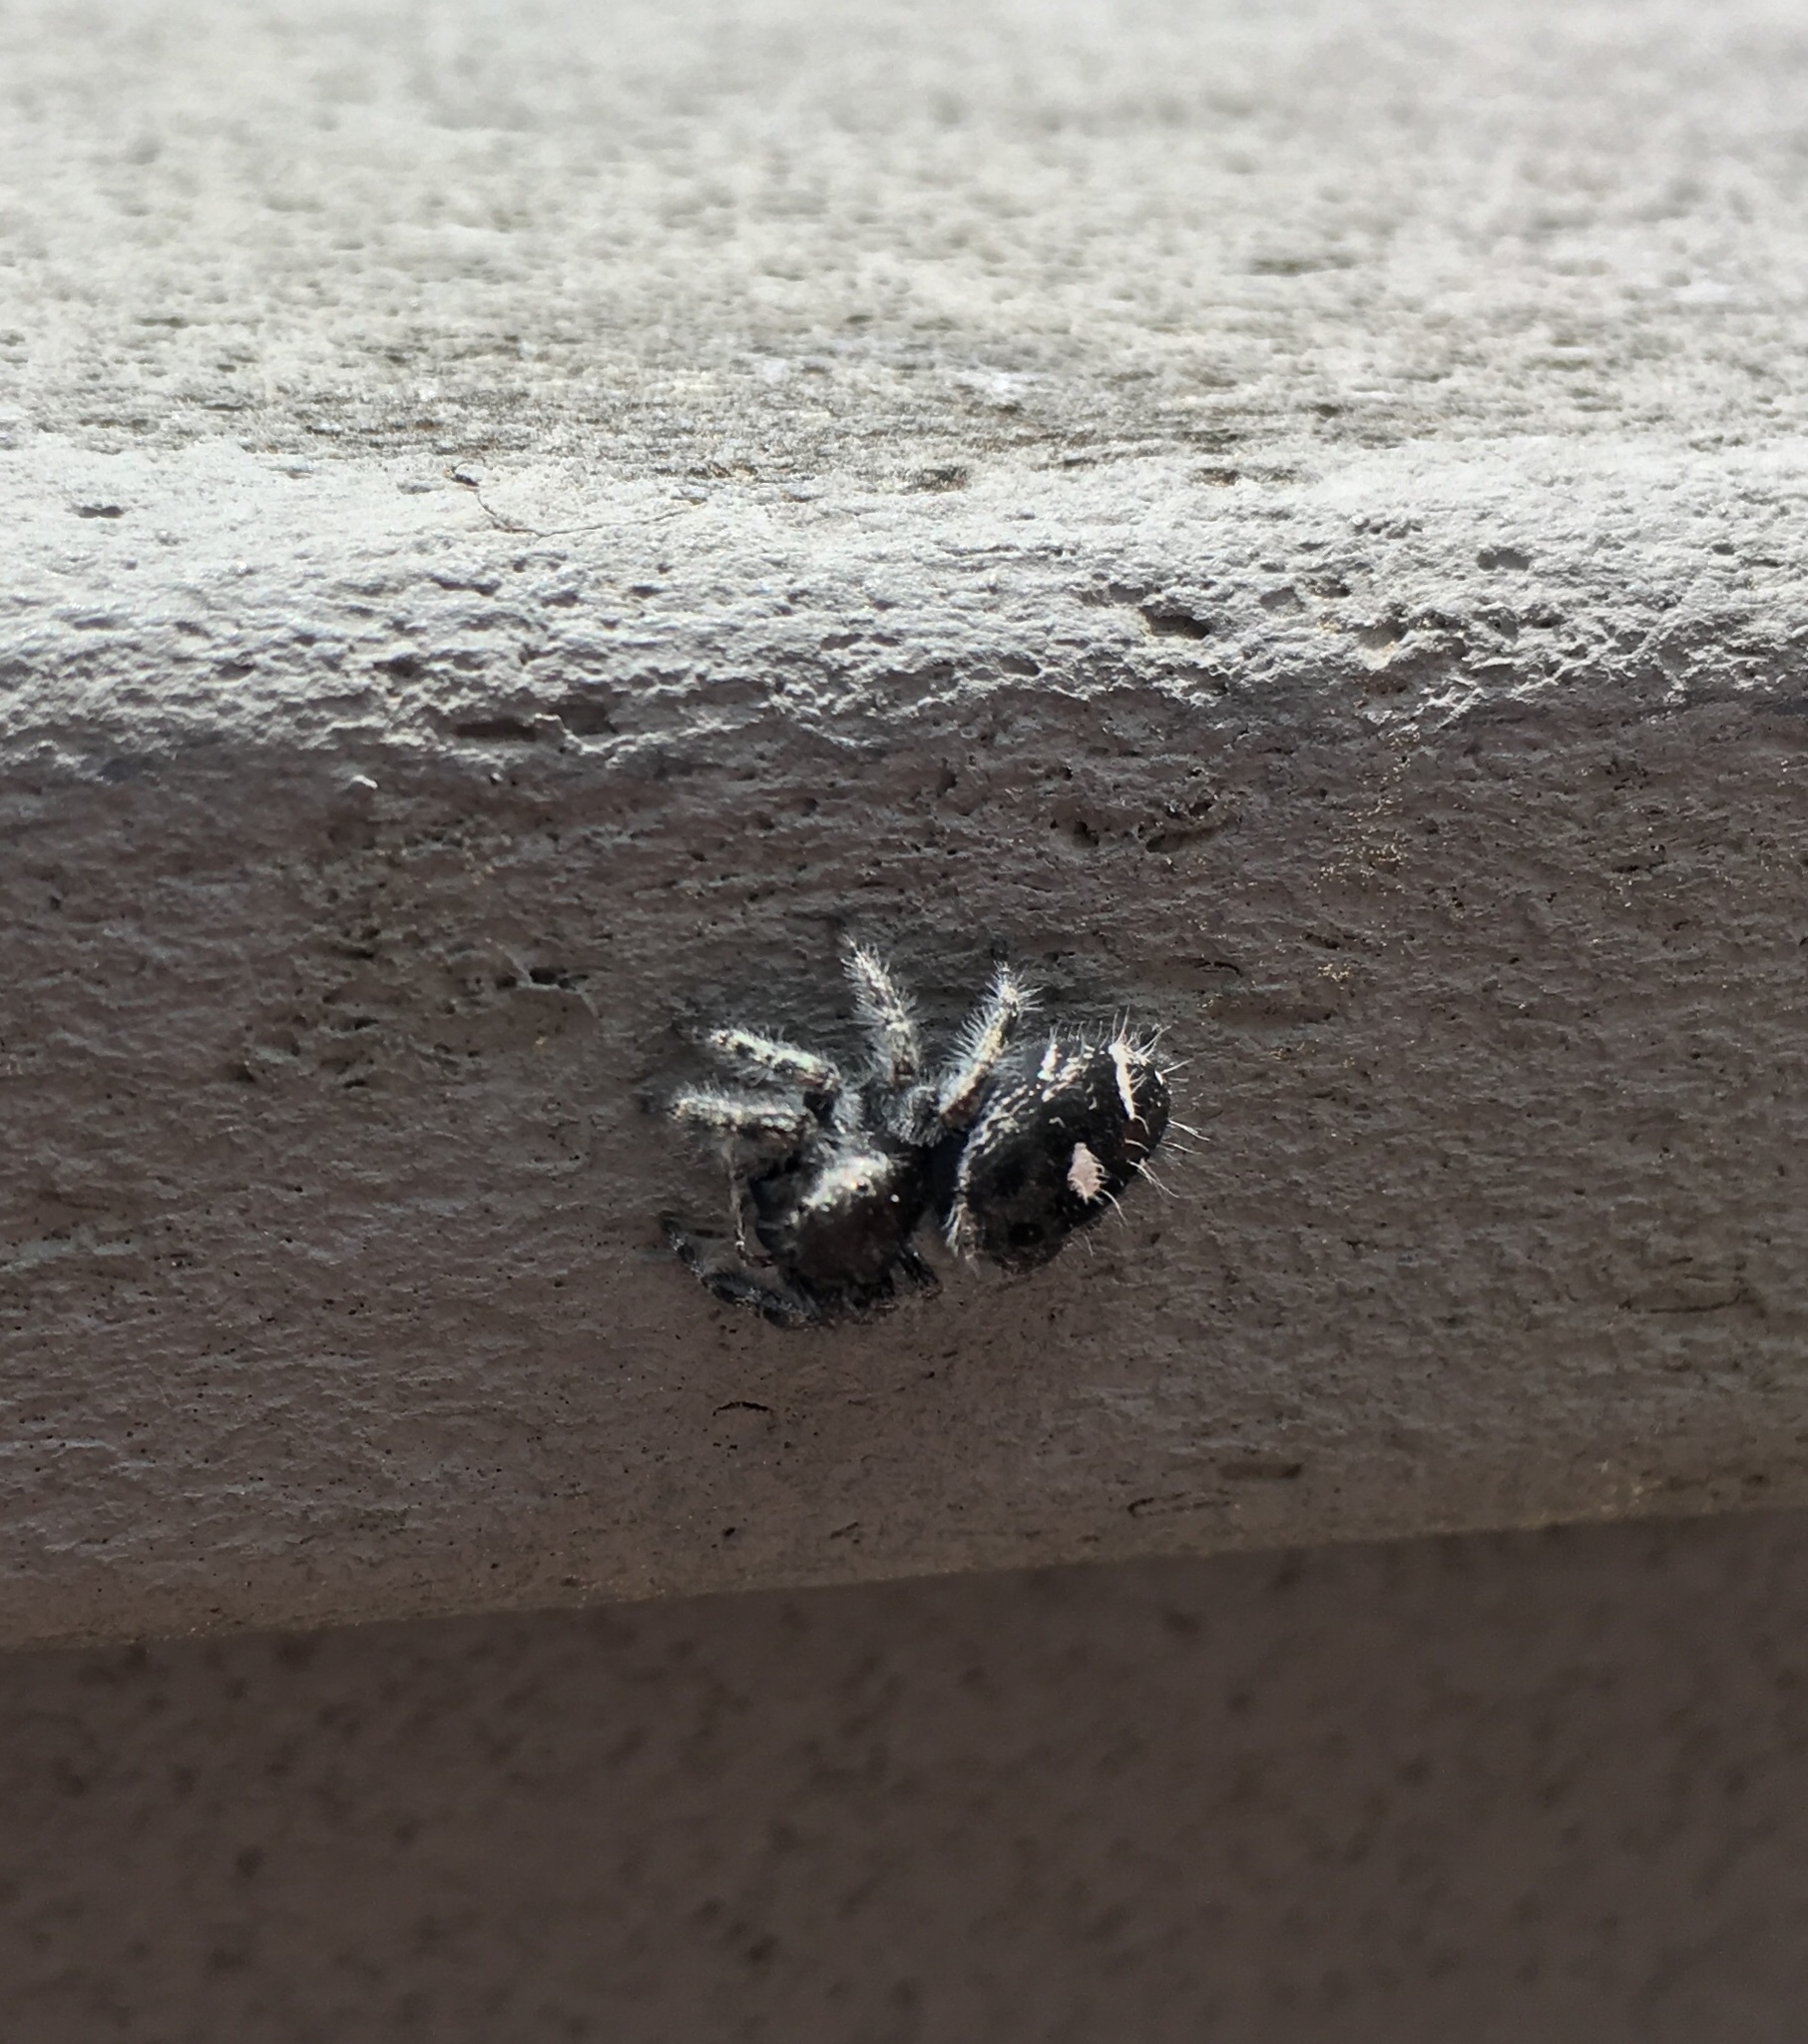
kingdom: Animalia
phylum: Arthropoda
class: Arachnida
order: Araneae
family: Salticidae
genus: Phidippus
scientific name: Phidippus audax
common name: Bold jumper
